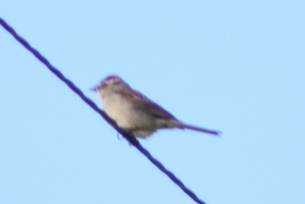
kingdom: Animalia
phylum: Chordata
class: Aves
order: Passeriformes
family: Passerellidae
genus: Spizella
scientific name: Spizella passerina
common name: Chipping sparrow
